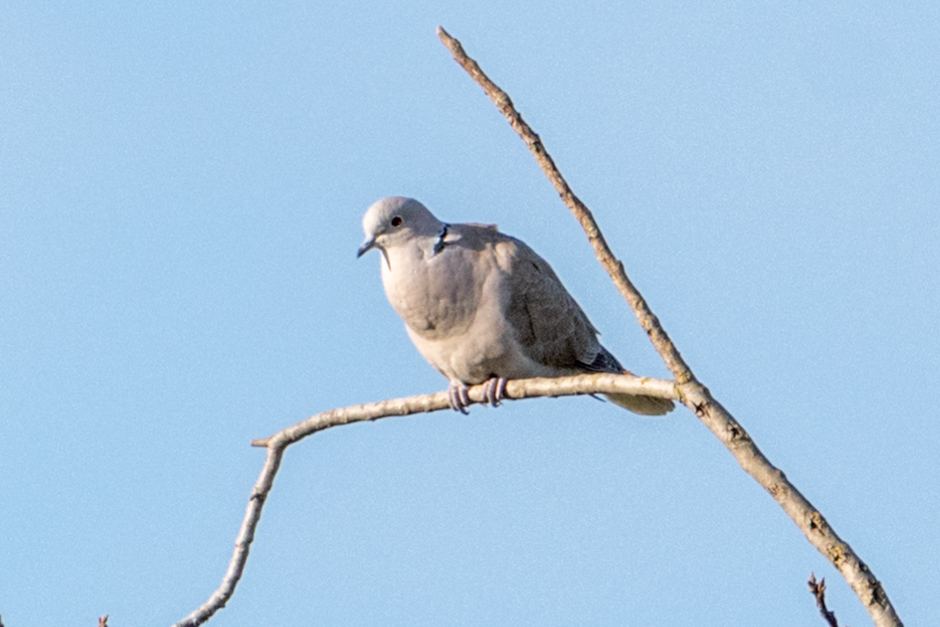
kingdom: Animalia
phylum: Chordata
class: Aves
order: Columbiformes
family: Columbidae
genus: Streptopelia
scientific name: Streptopelia decaocto
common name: Eurasian collared dove
